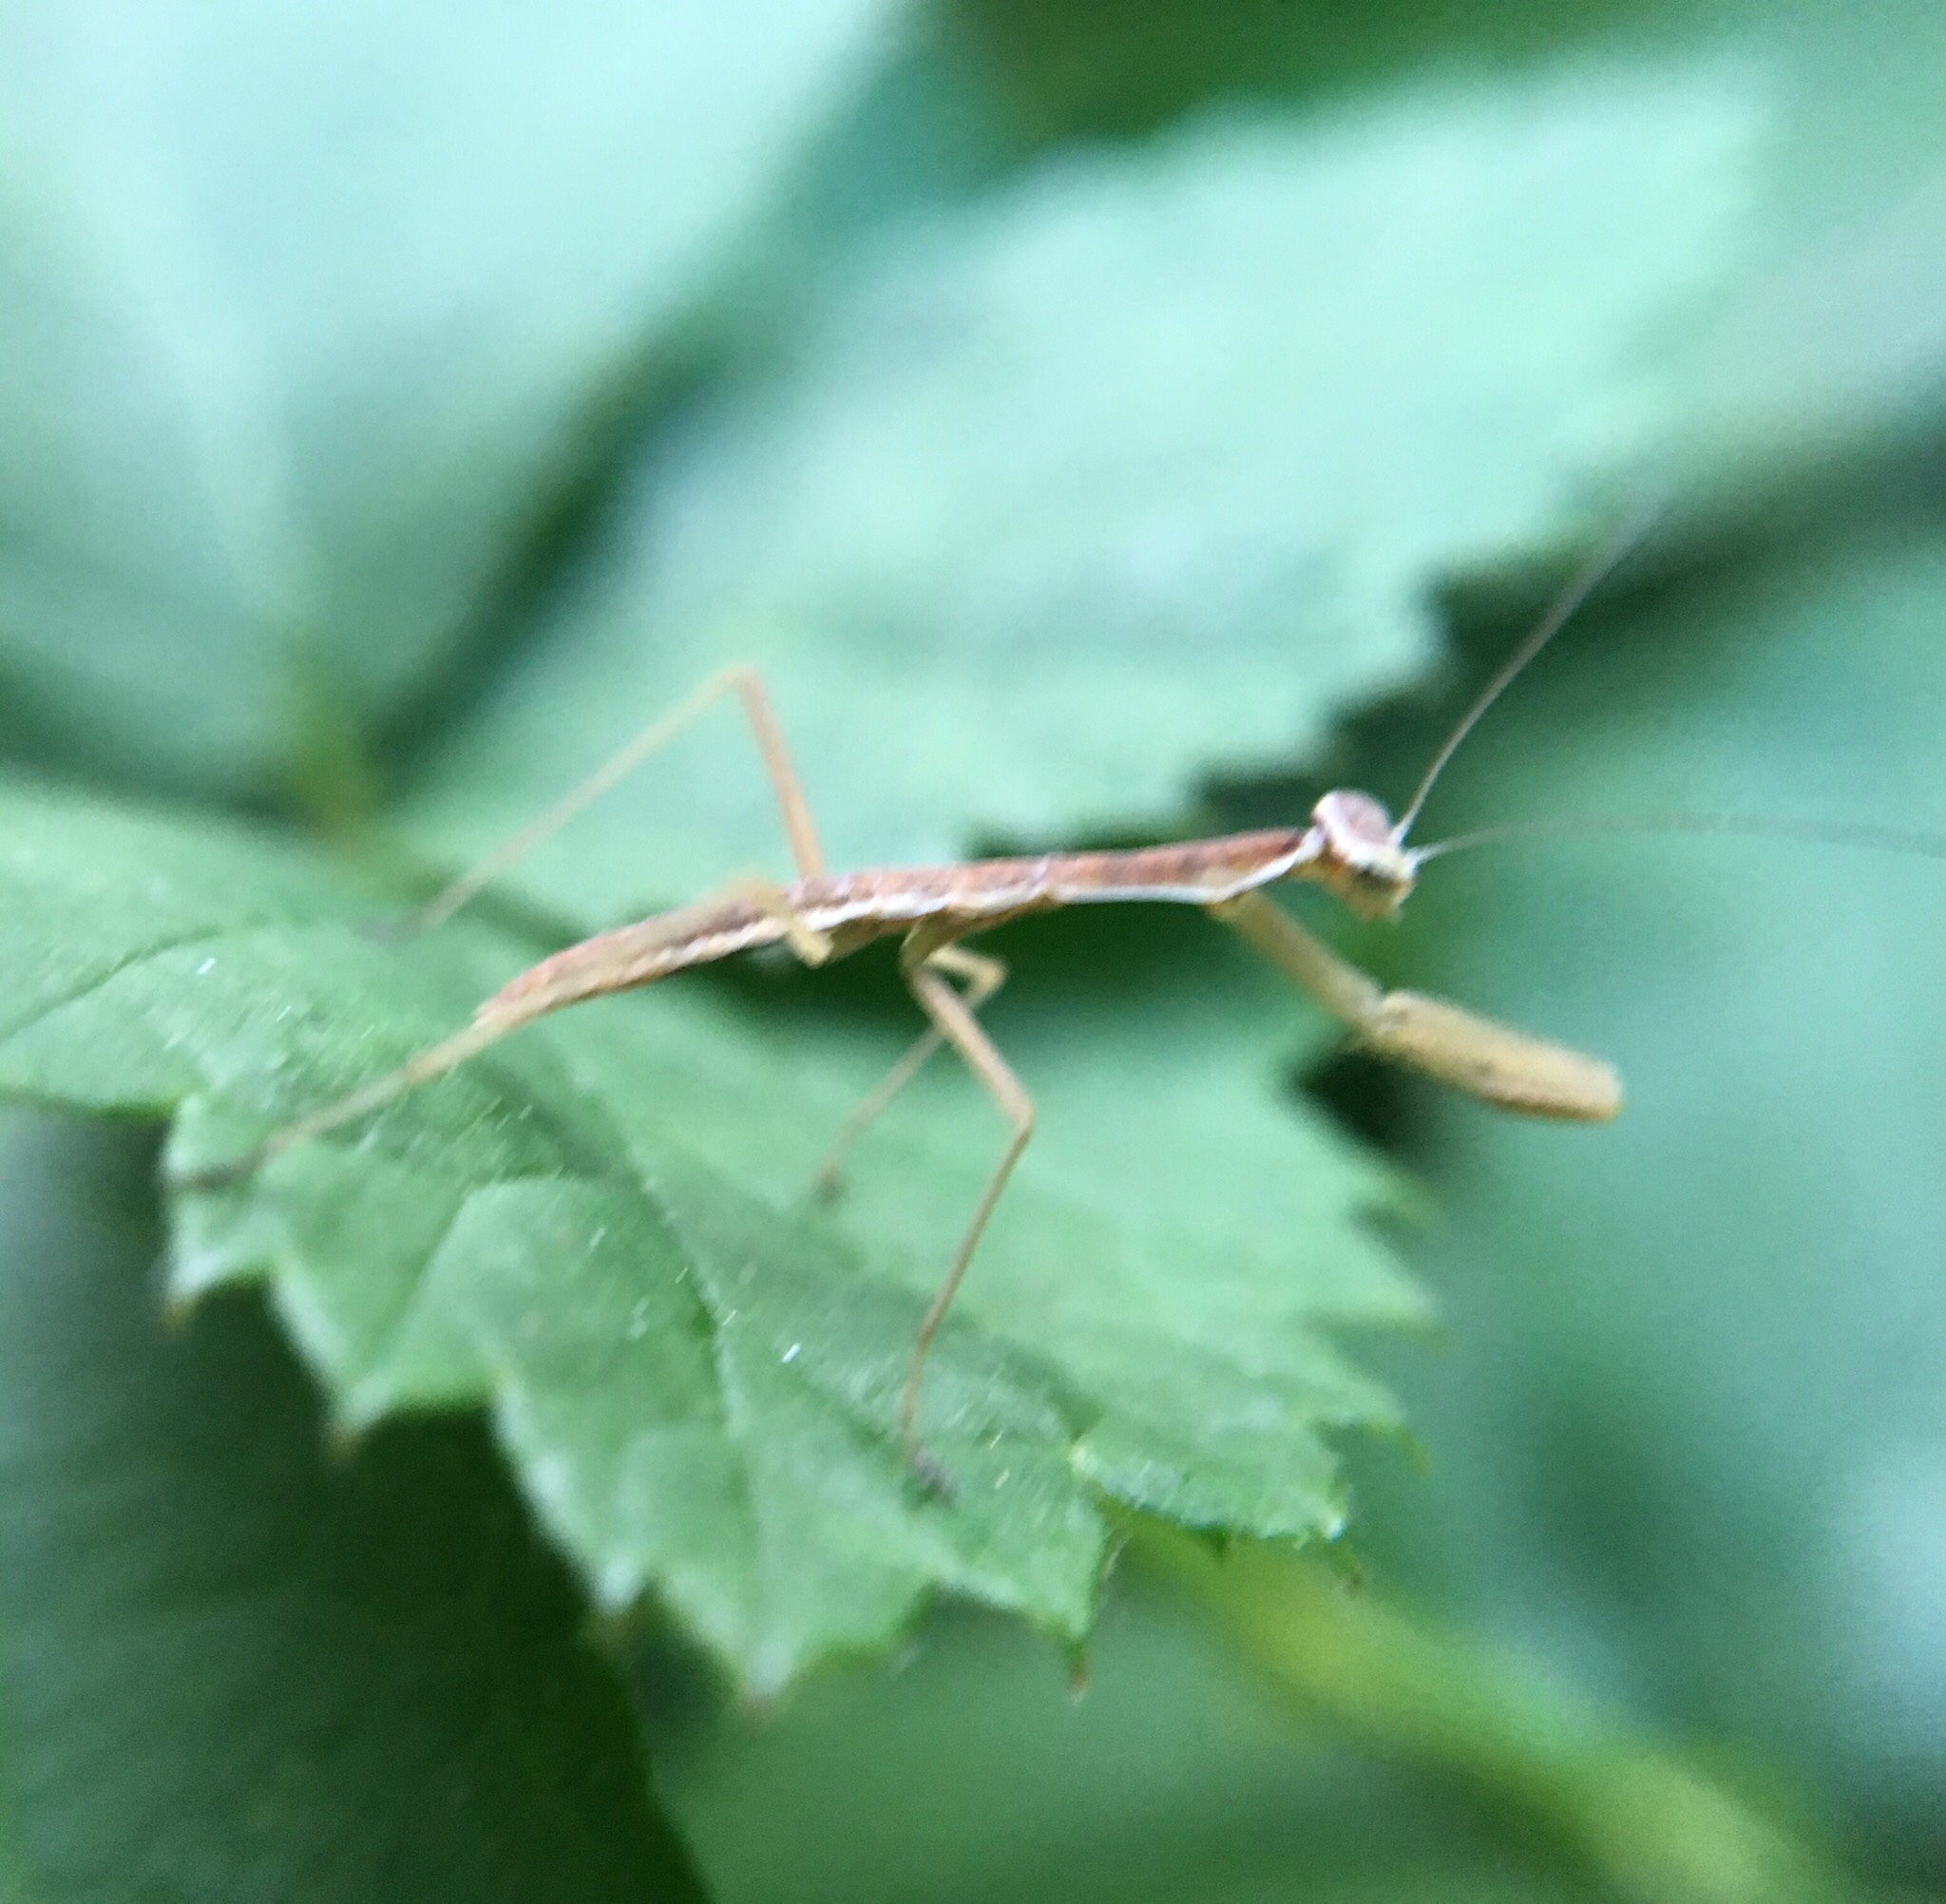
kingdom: Animalia
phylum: Arthropoda
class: Insecta
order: Mantodea
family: Mantidae
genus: Tenodera
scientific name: Tenodera sinensis
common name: Chinese mantis
